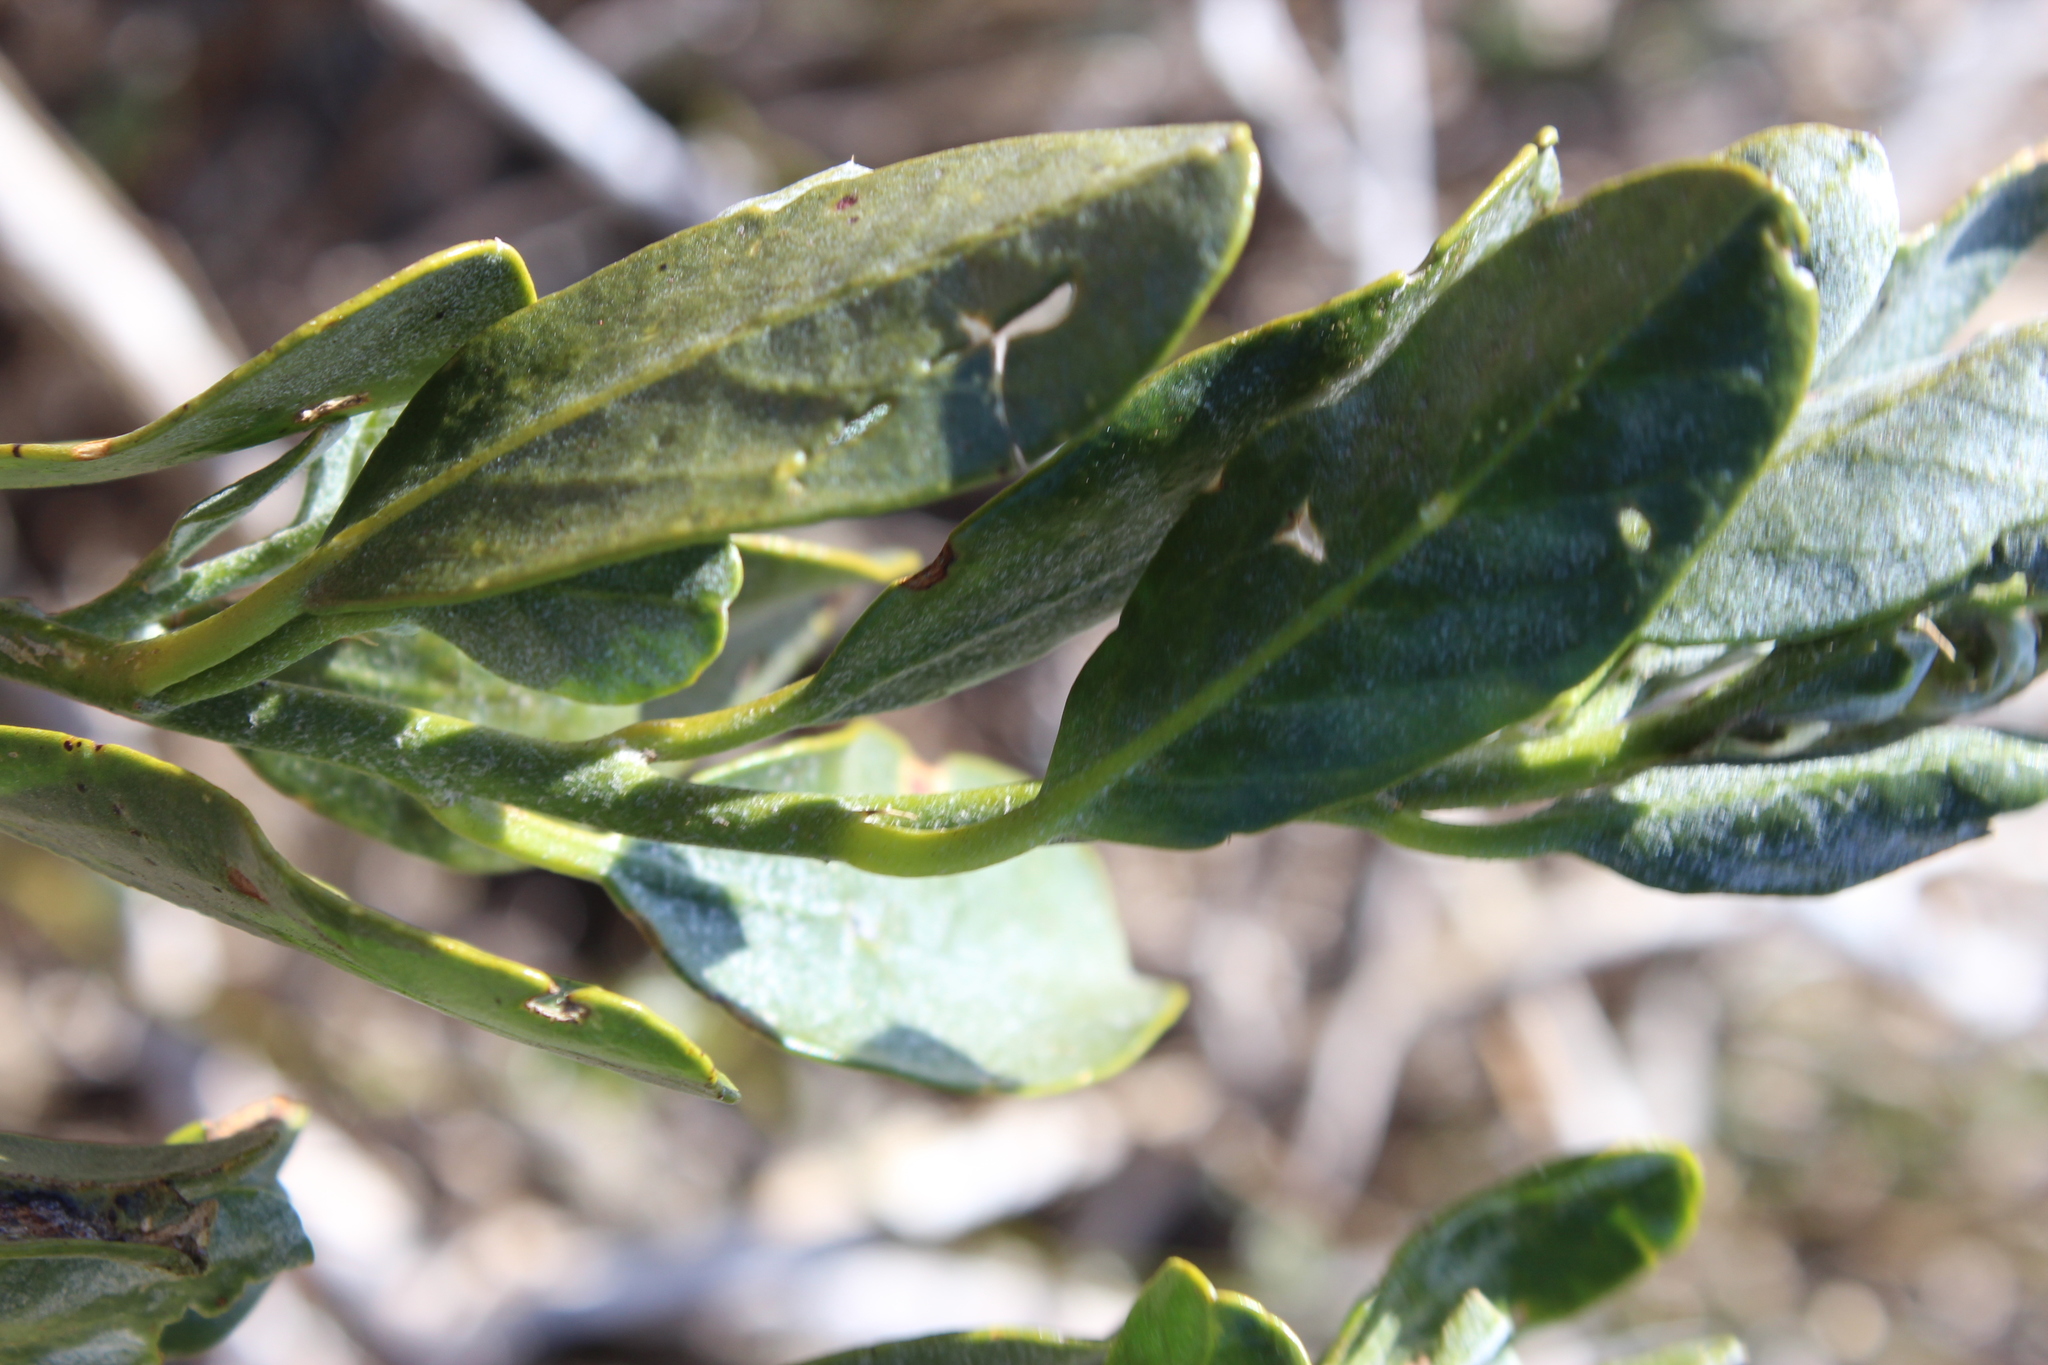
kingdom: Plantae
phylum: Tracheophyta
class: Magnoliopsida
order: Brassicales
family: Capparaceae
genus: Capparis
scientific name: Capparis hereroensis
